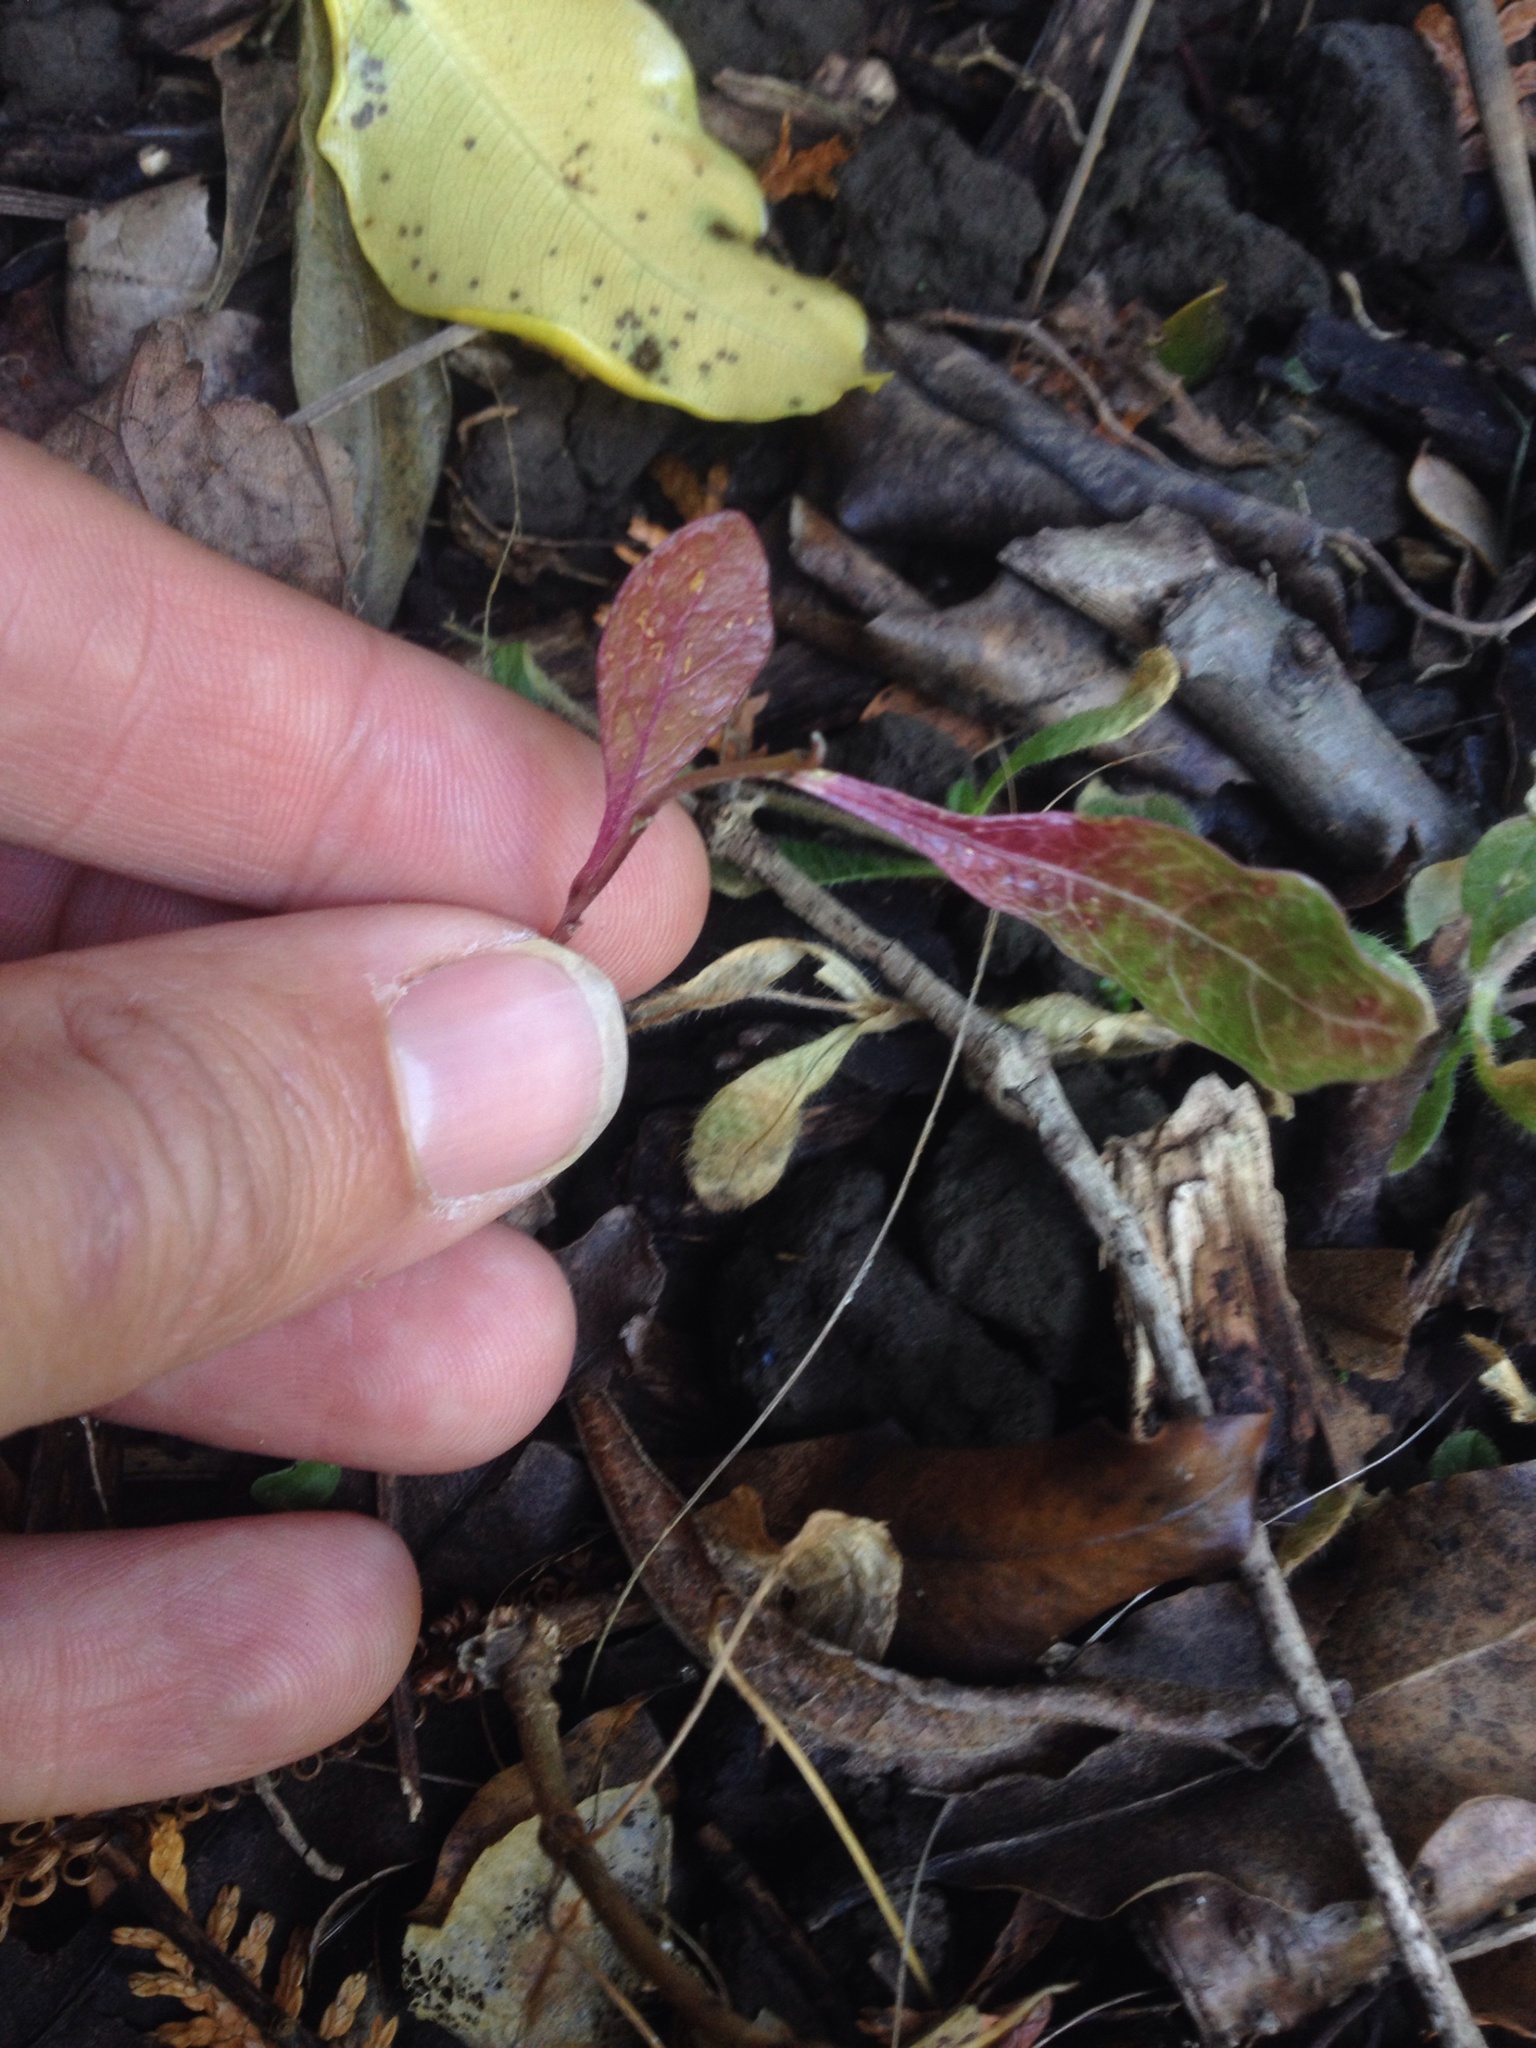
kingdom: Plantae
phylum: Tracheophyta
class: Magnoliopsida
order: Sapindales
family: Sapindaceae
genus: Dodonaea
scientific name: Dodonaea viscosa
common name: Hopbush
